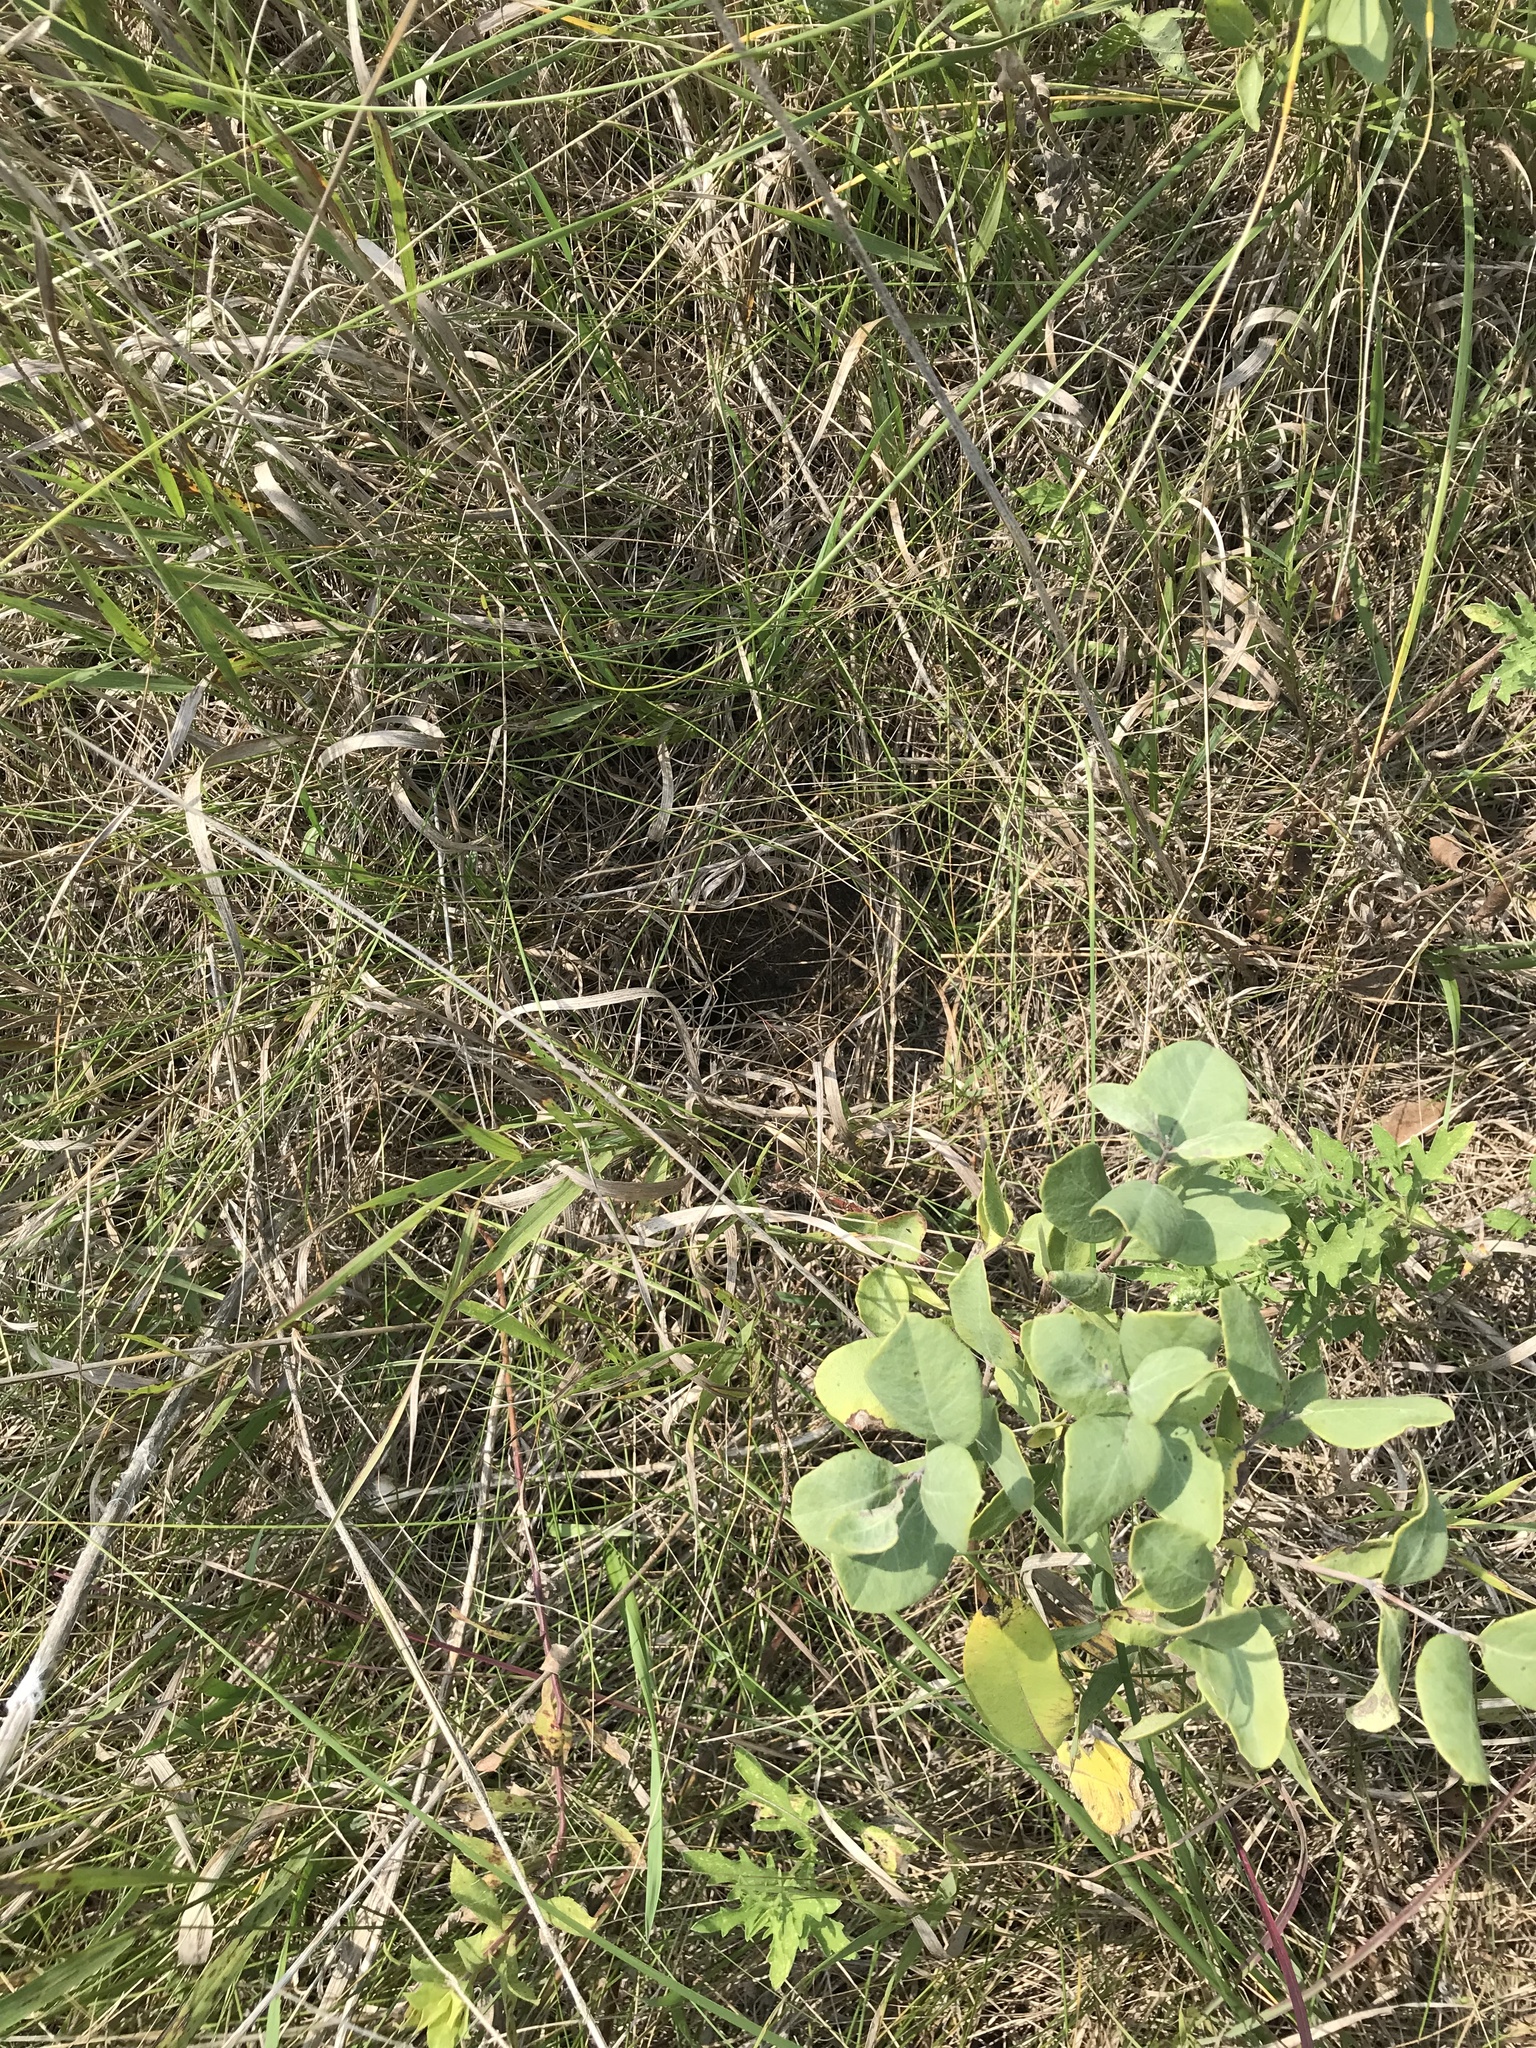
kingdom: Animalia
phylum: Arthropoda
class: Insecta
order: Hymenoptera
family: Apidae
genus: Bombus
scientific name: Bombus pensylvanicus
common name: Bumble bee
